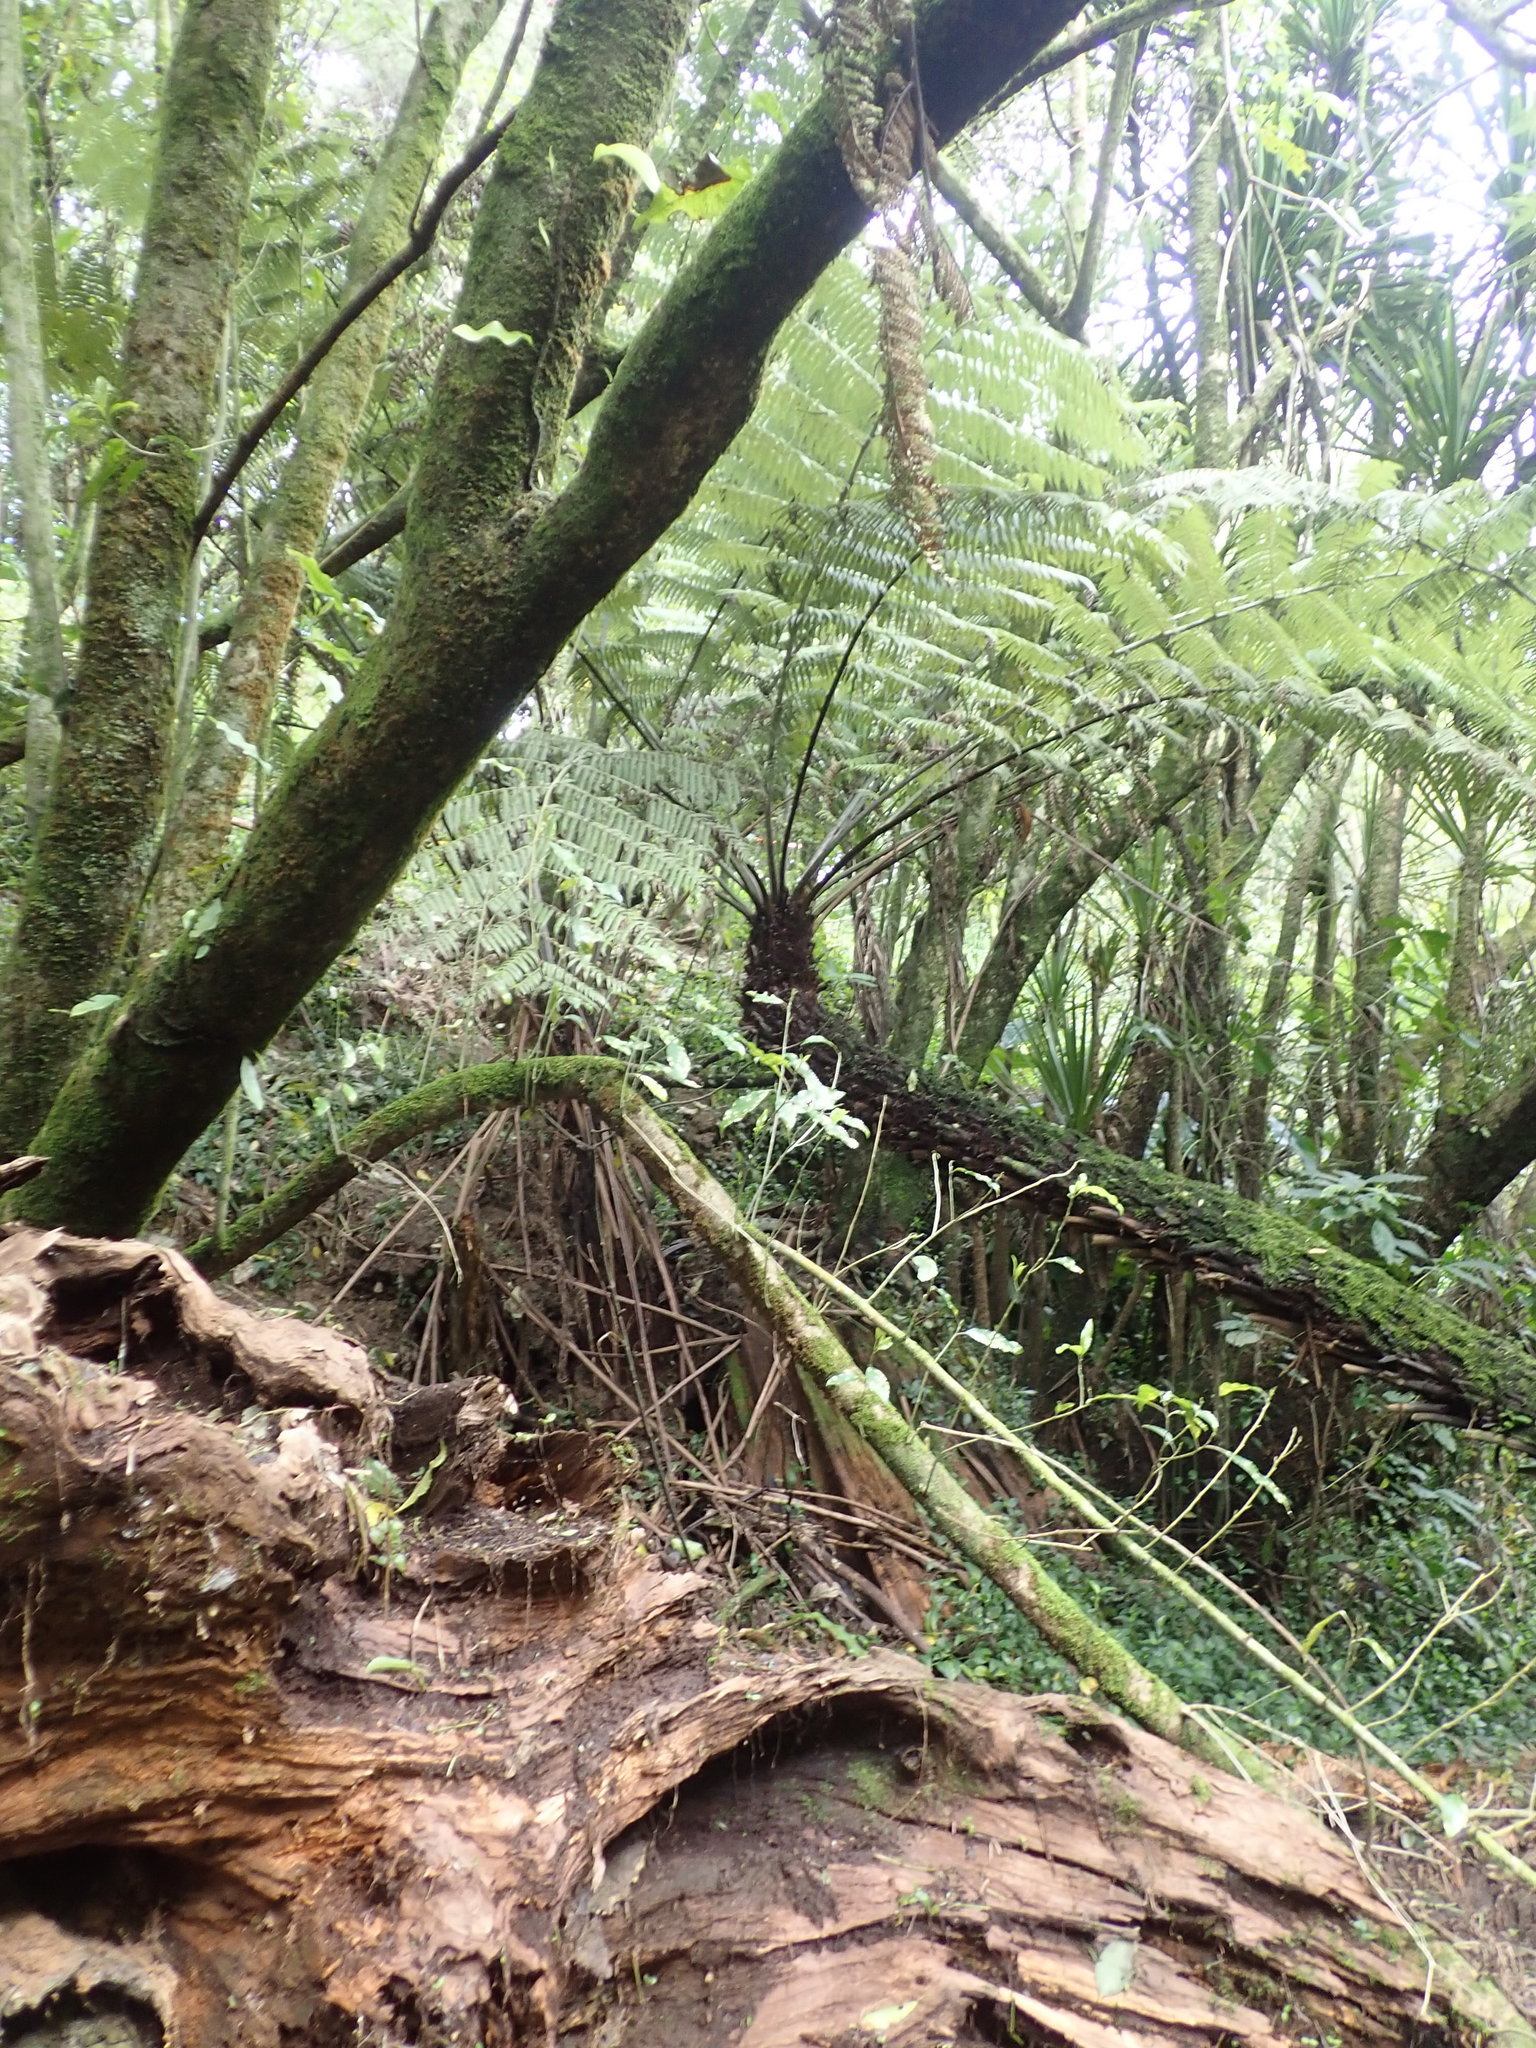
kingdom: Plantae
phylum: Tracheophyta
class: Polypodiopsida
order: Polypodiales
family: Polypodiaceae
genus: Lecanopteris
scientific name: Lecanopteris pustulata
